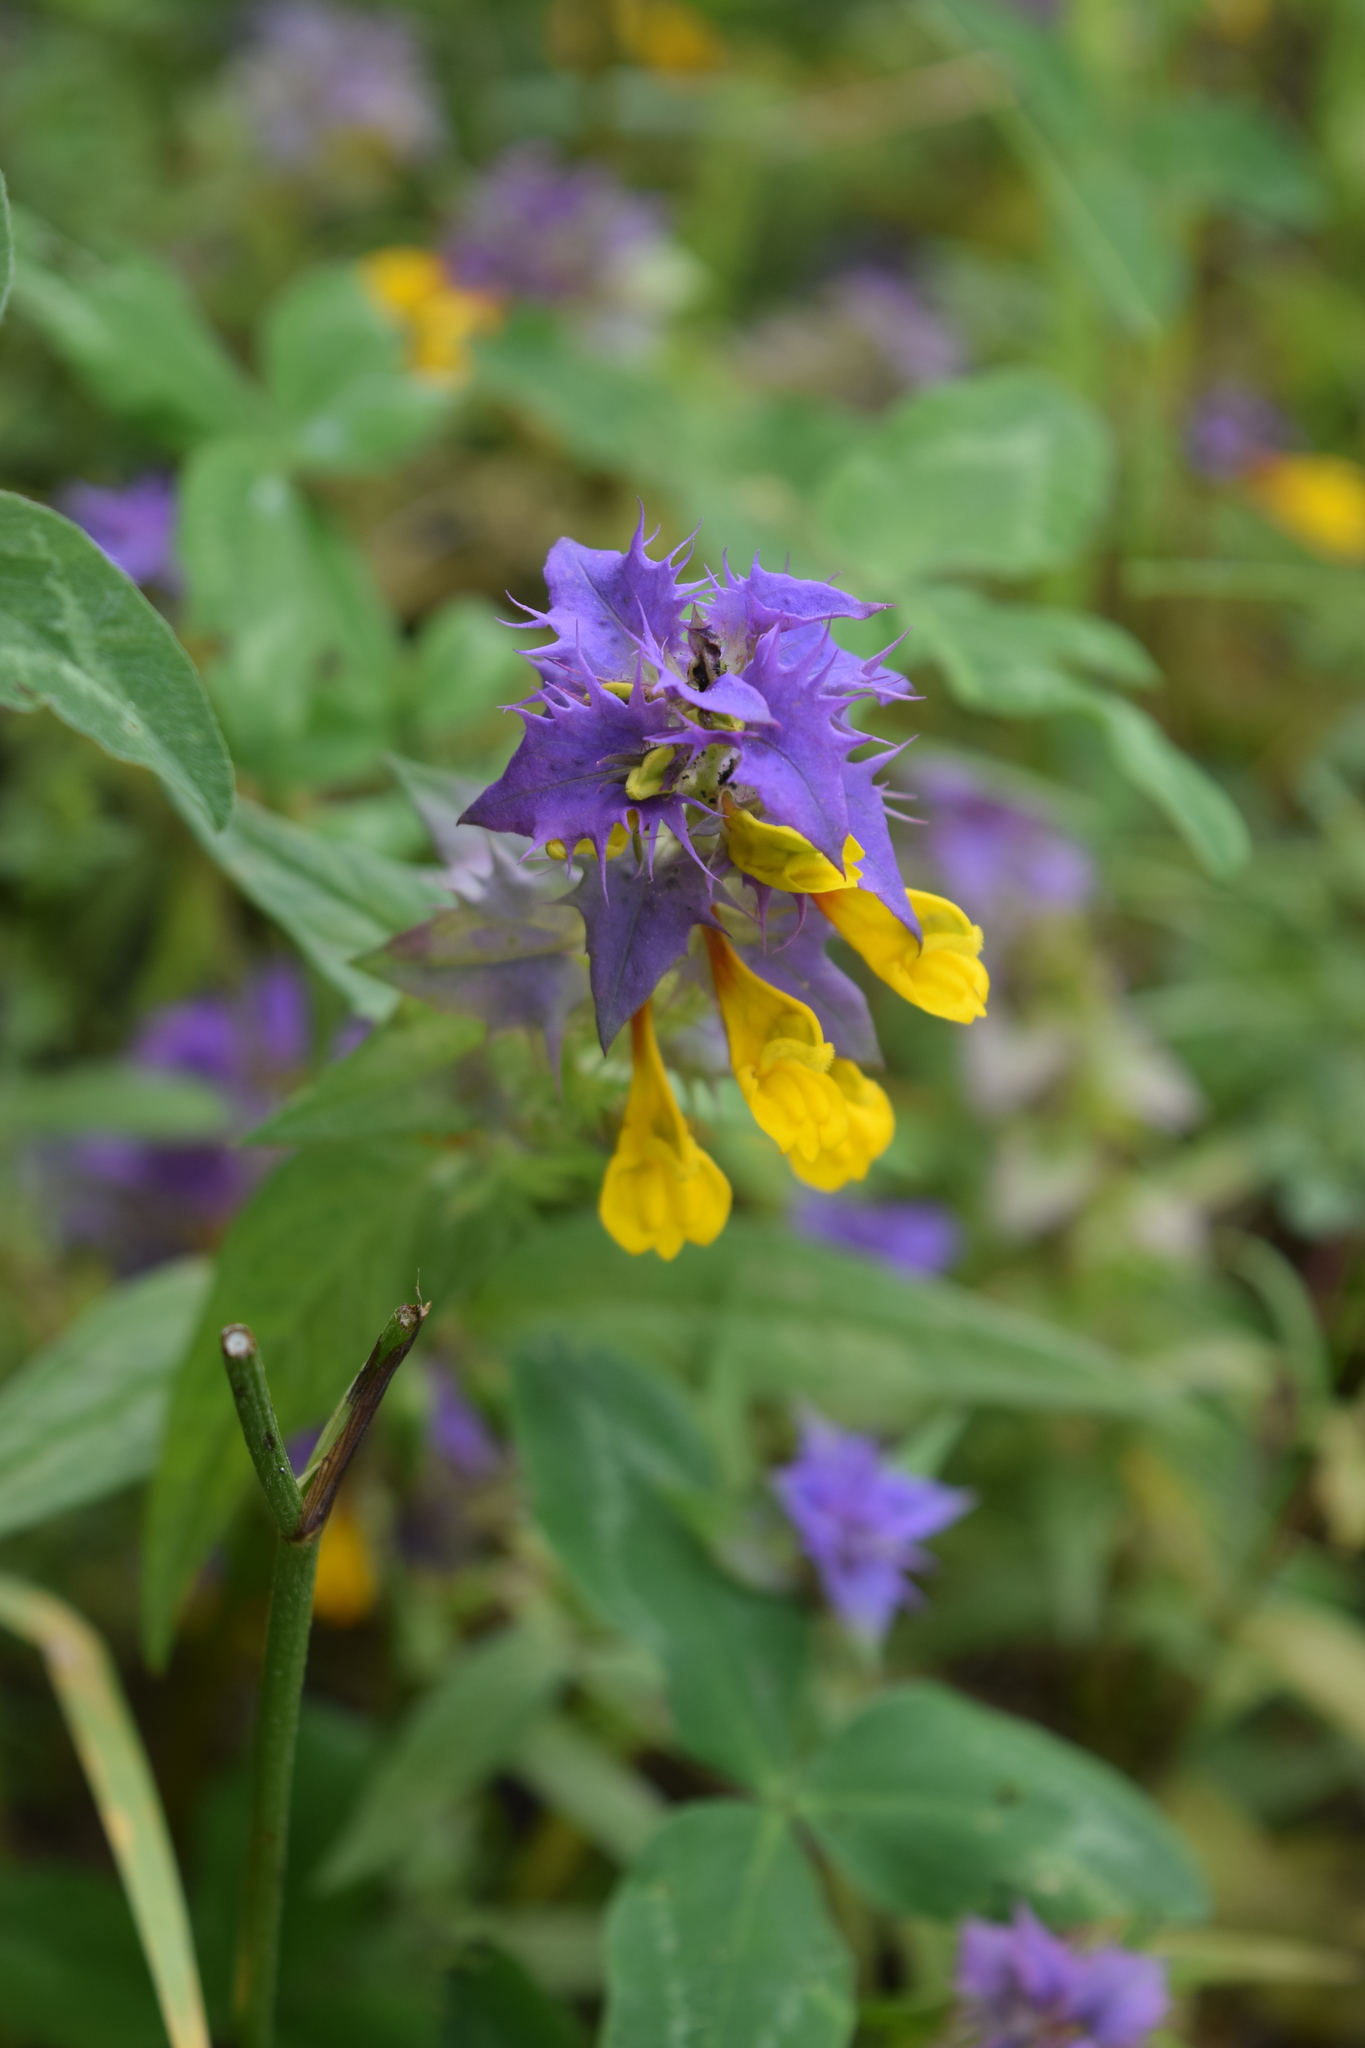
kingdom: Plantae
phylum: Tracheophyta
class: Magnoliopsida
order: Lamiales
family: Orobanchaceae
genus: Melampyrum
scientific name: Melampyrum nemorosum
